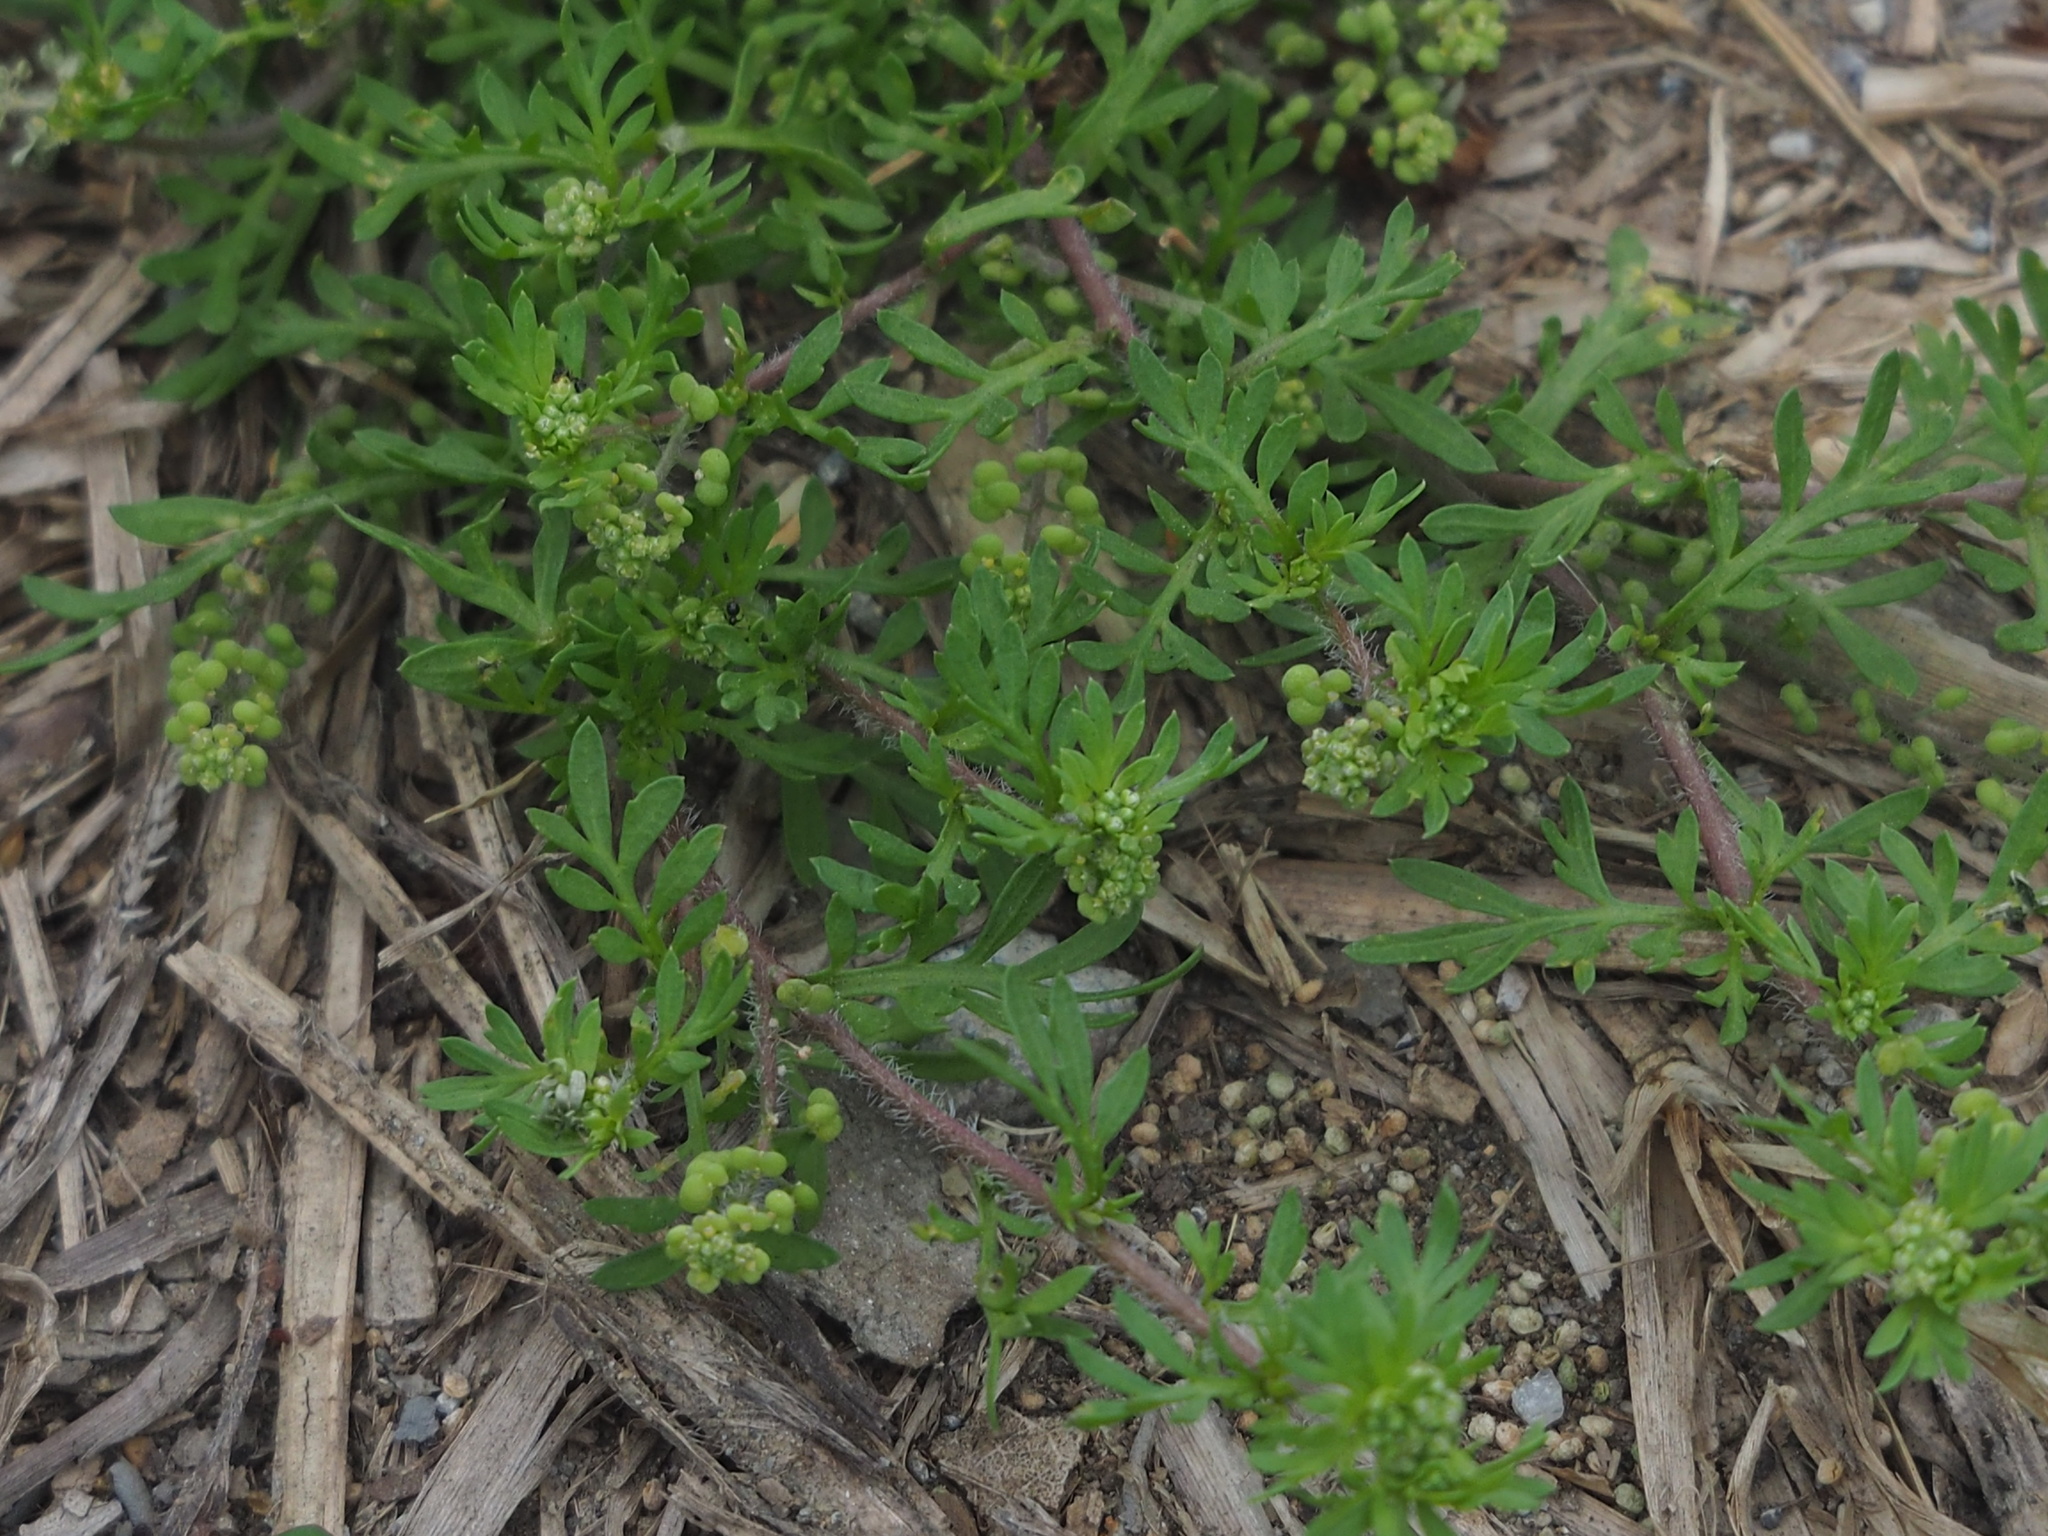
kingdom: Plantae
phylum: Tracheophyta
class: Magnoliopsida
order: Brassicales
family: Brassicaceae
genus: Lepidium
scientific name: Lepidium didymum
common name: Lesser swinecress
